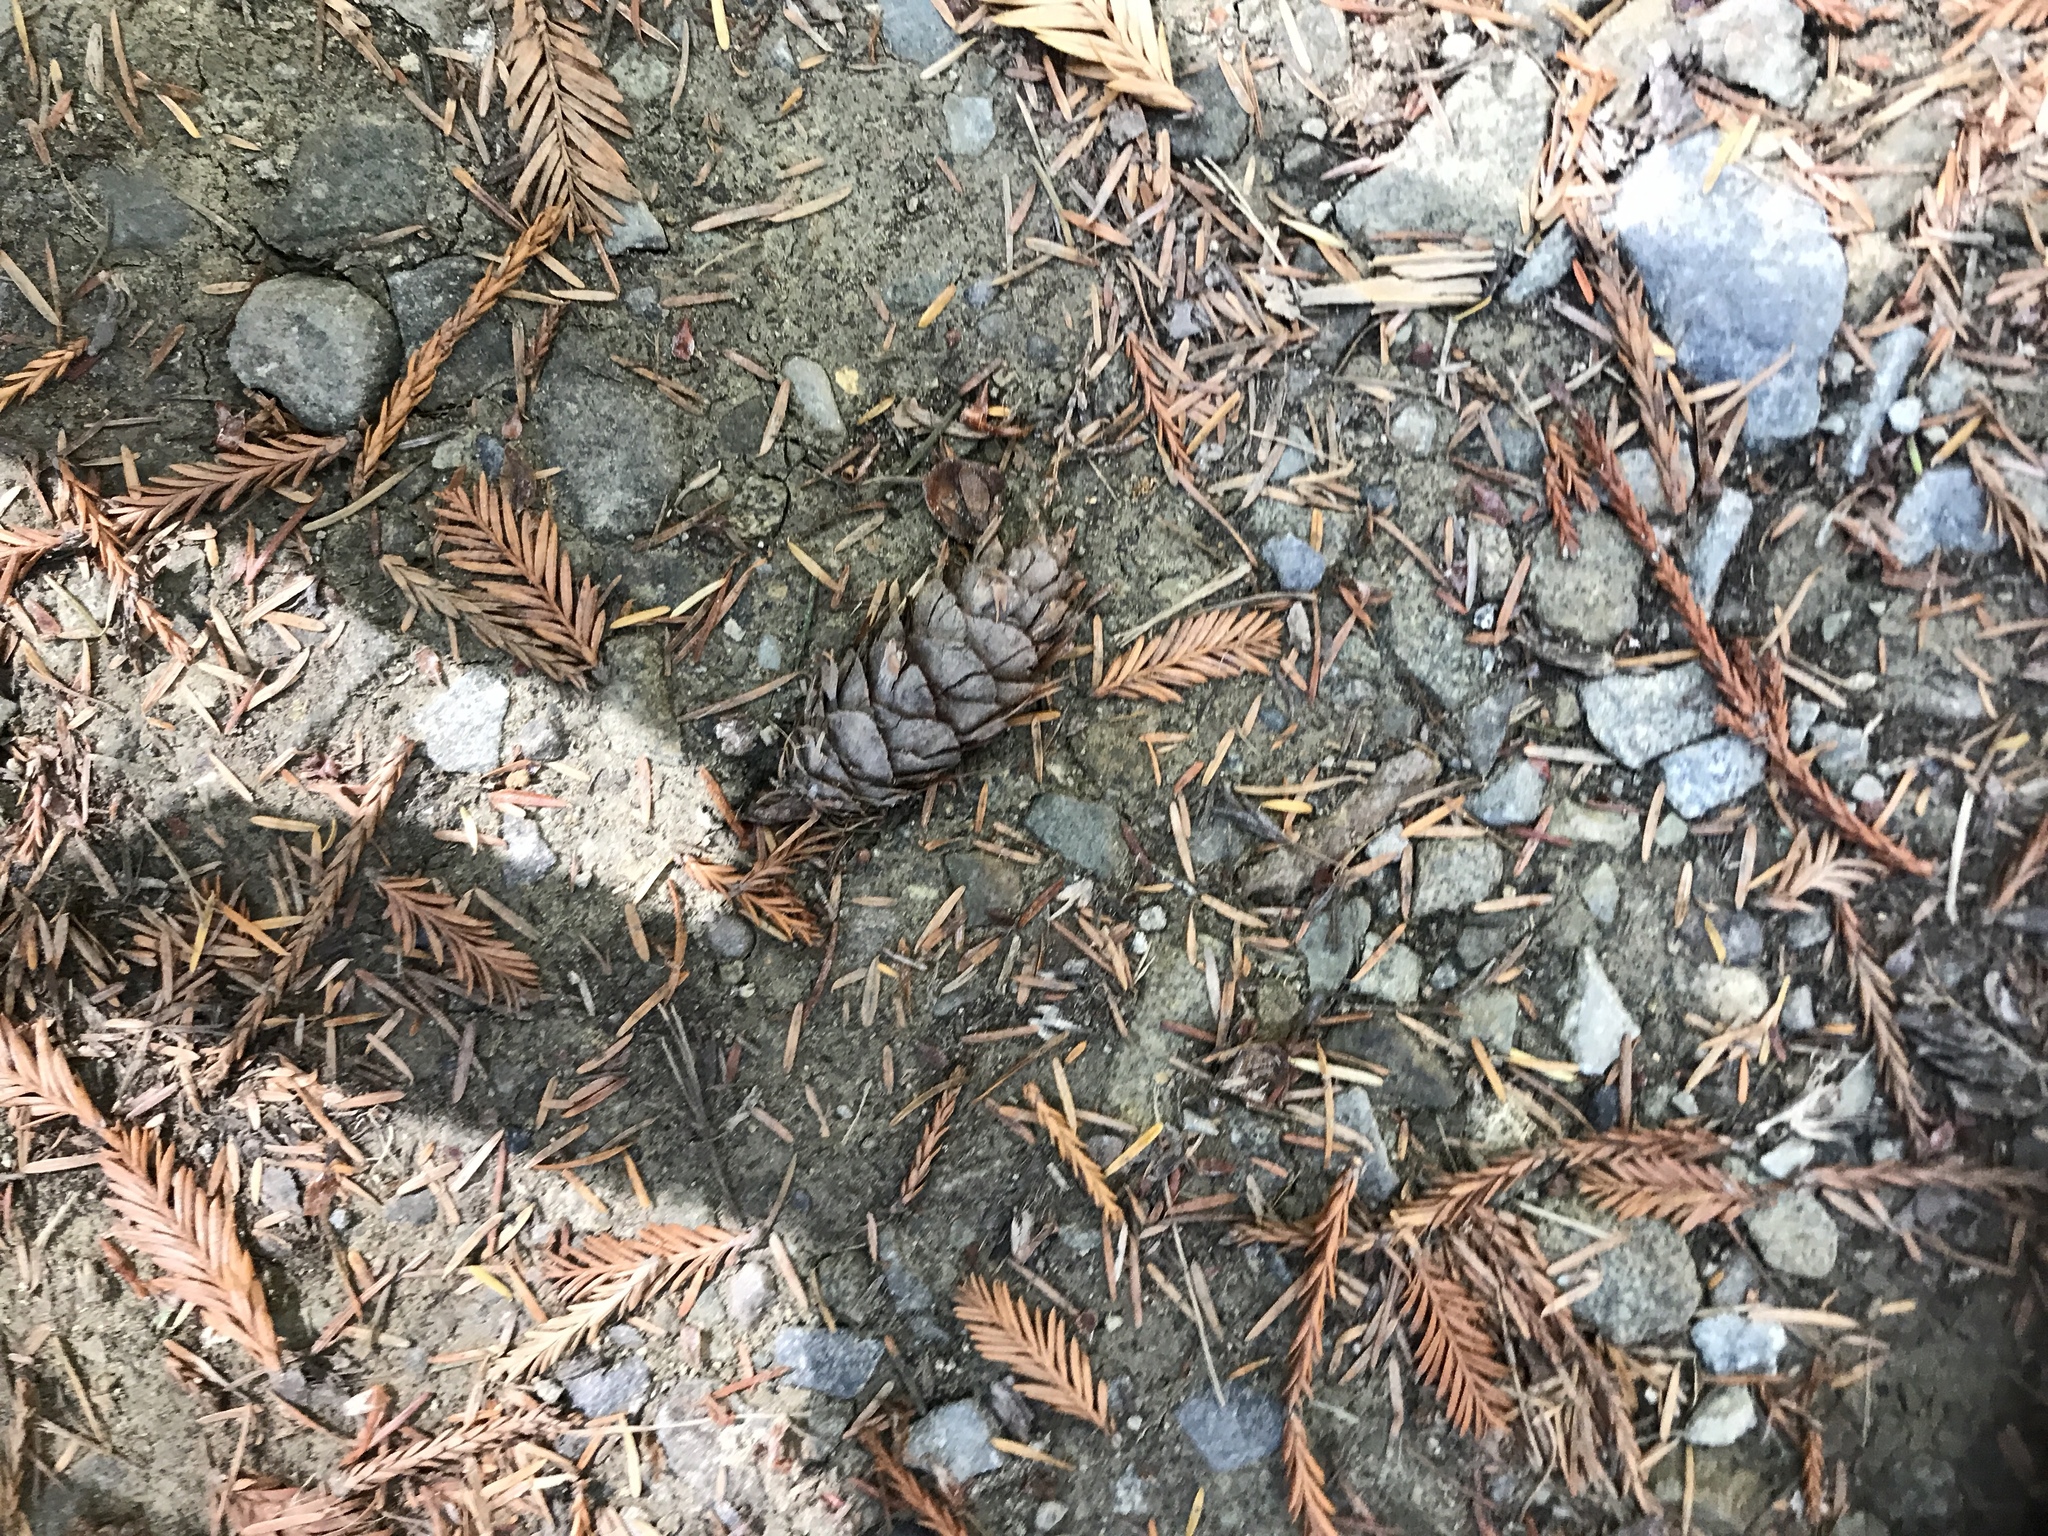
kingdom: Plantae
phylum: Tracheophyta
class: Pinopsida
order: Pinales
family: Pinaceae
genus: Pseudotsuga
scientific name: Pseudotsuga menziesii
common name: Douglas fir
